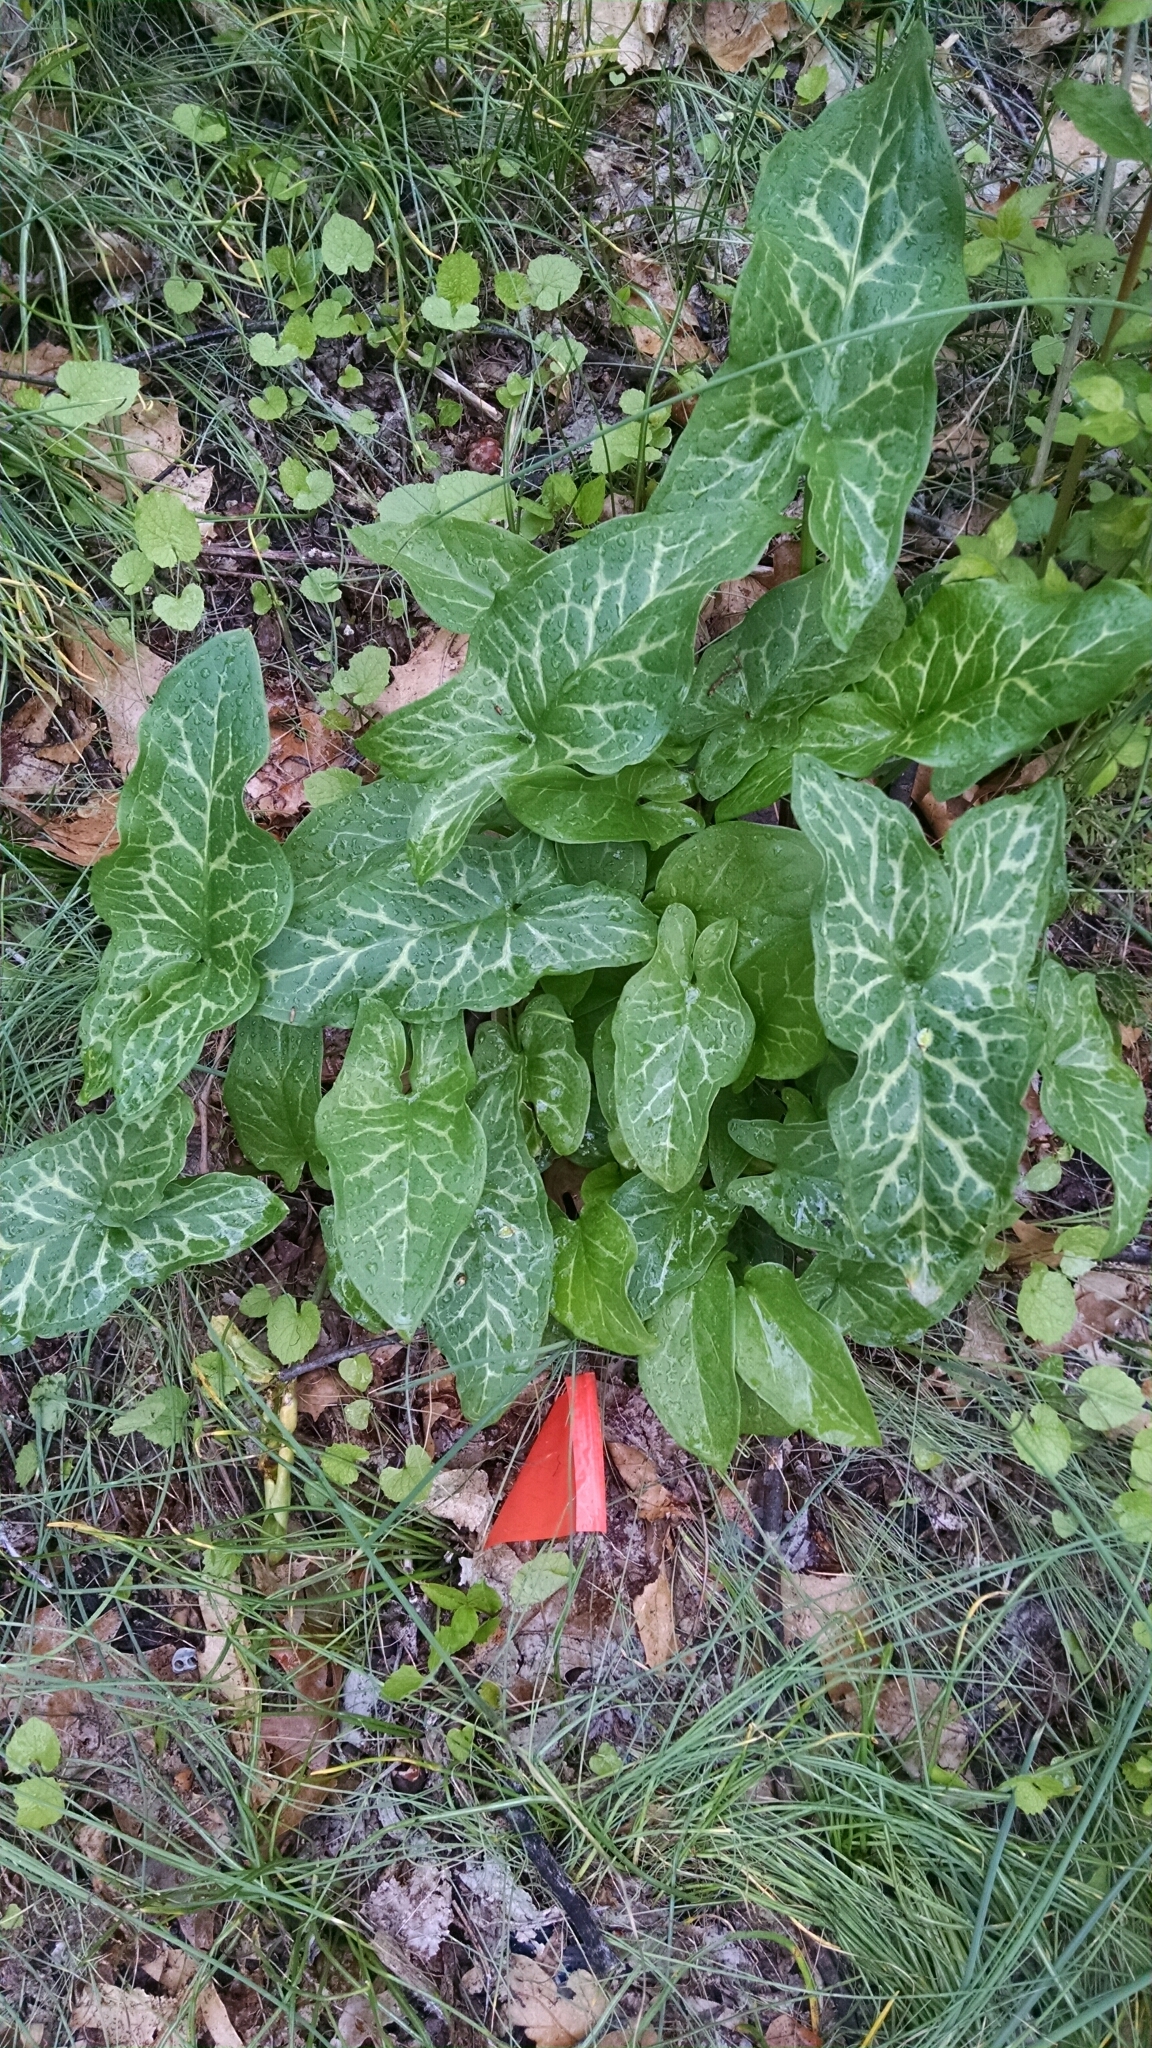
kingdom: Plantae
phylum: Tracheophyta
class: Liliopsida
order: Alismatales
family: Araceae
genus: Arum
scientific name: Arum italicum
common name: Italian lords-and-ladies
